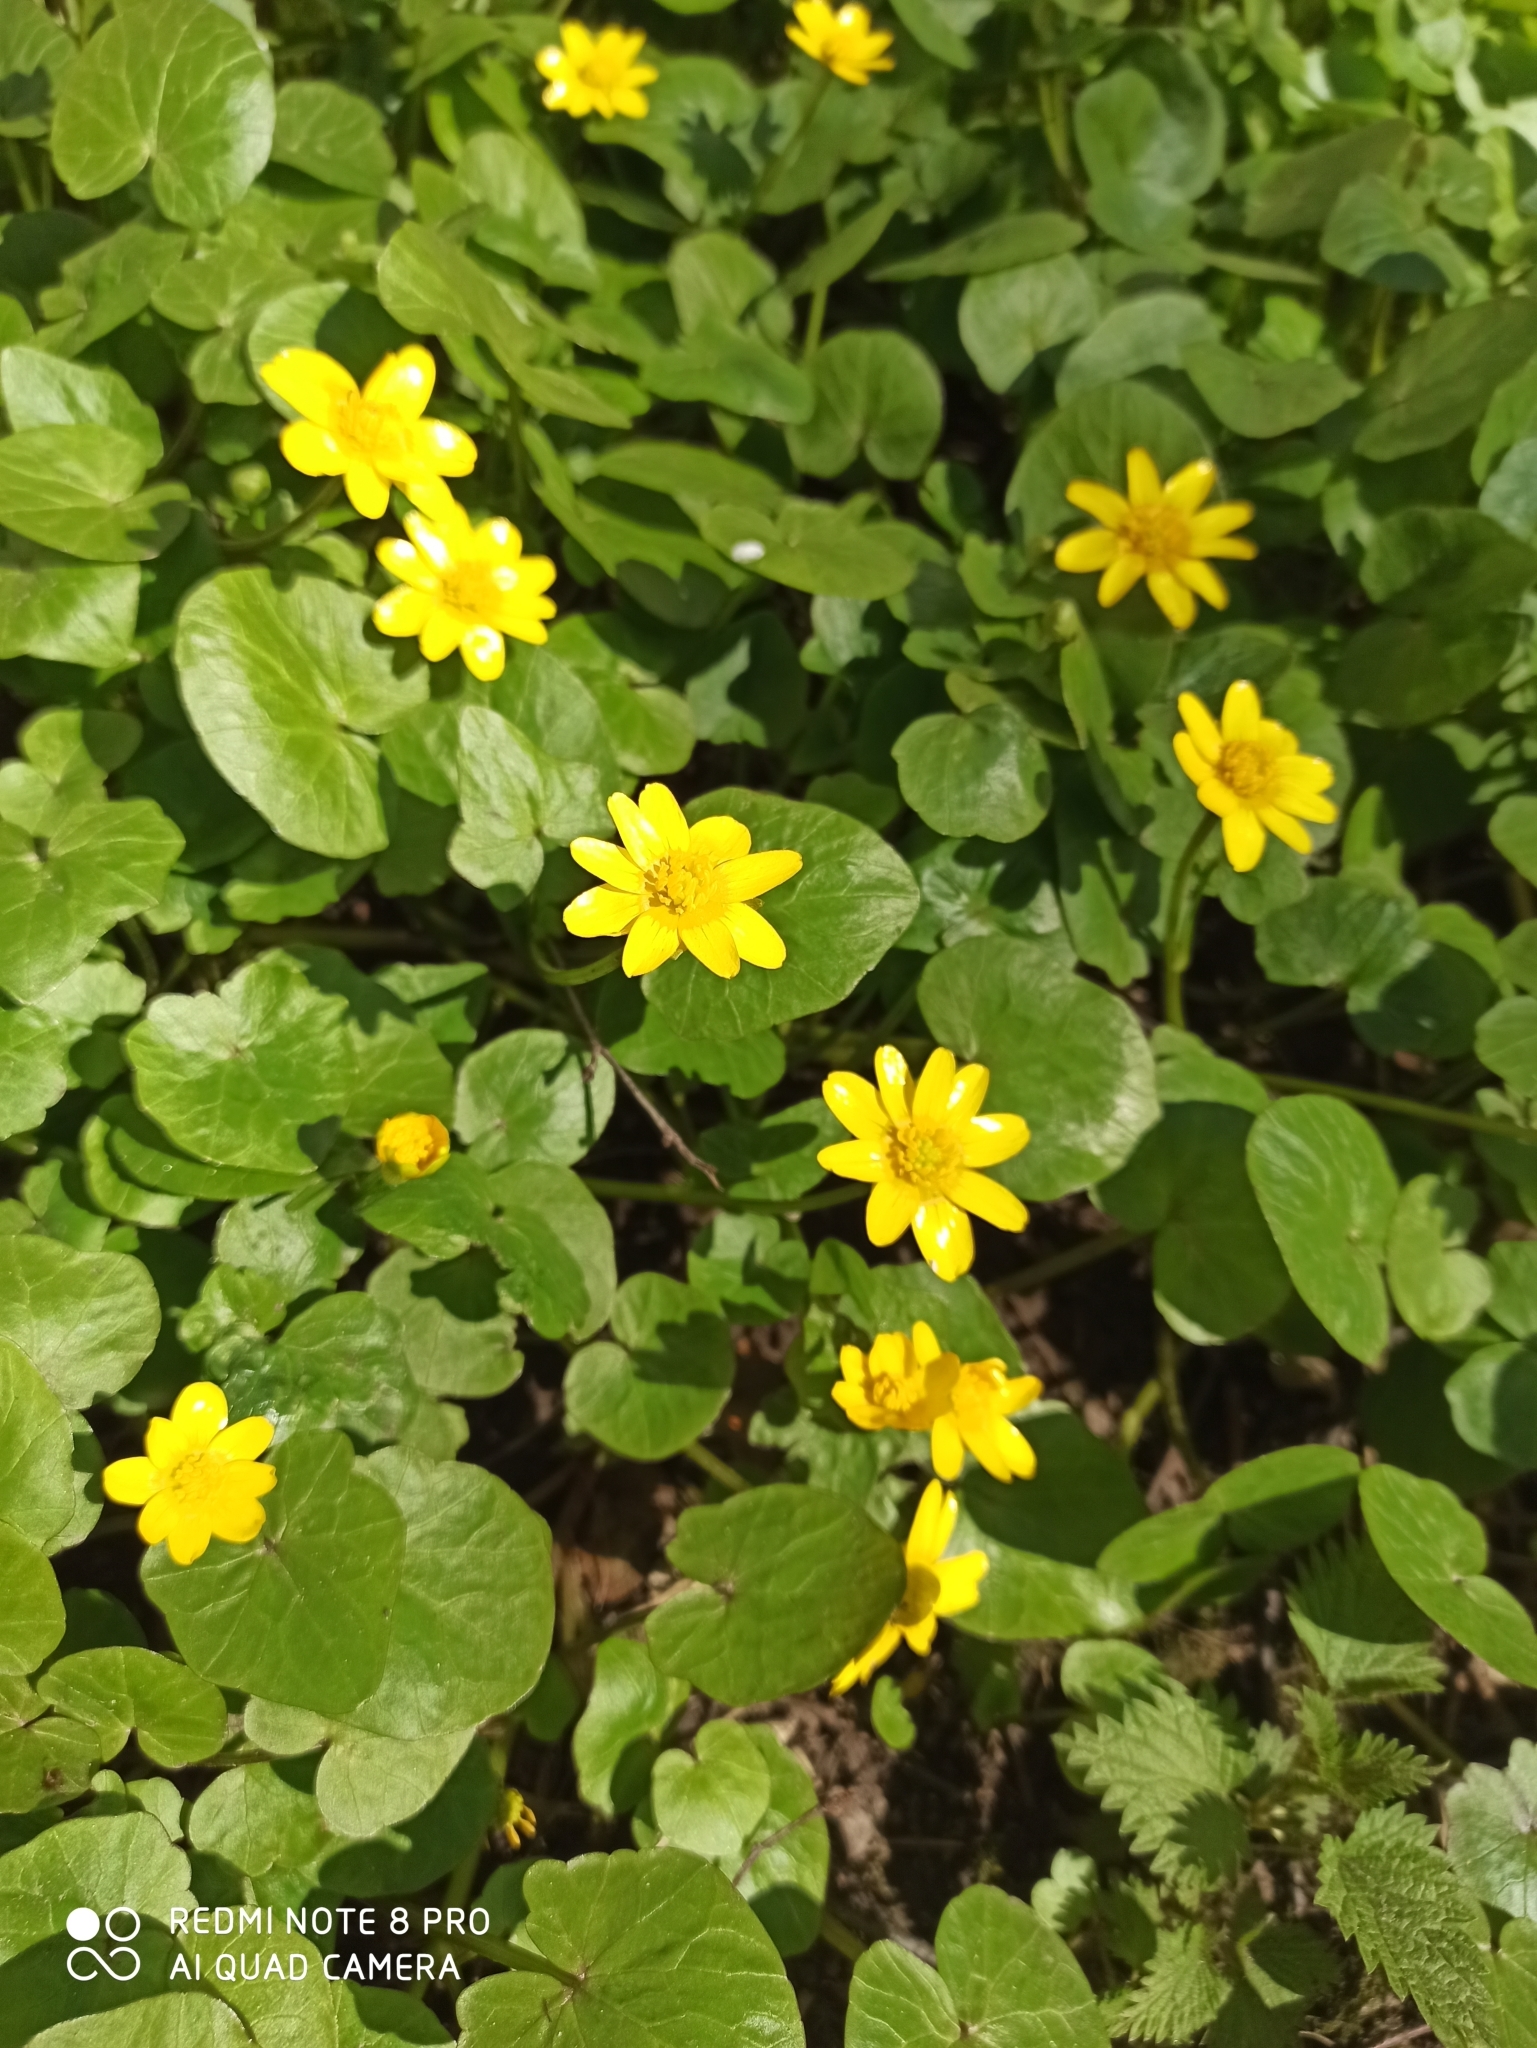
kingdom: Plantae
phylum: Tracheophyta
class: Magnoliopsida
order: Ranunculales
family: Ranunculaceae
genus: Ficaria
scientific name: Ficaria verna
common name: Lesser celandine
